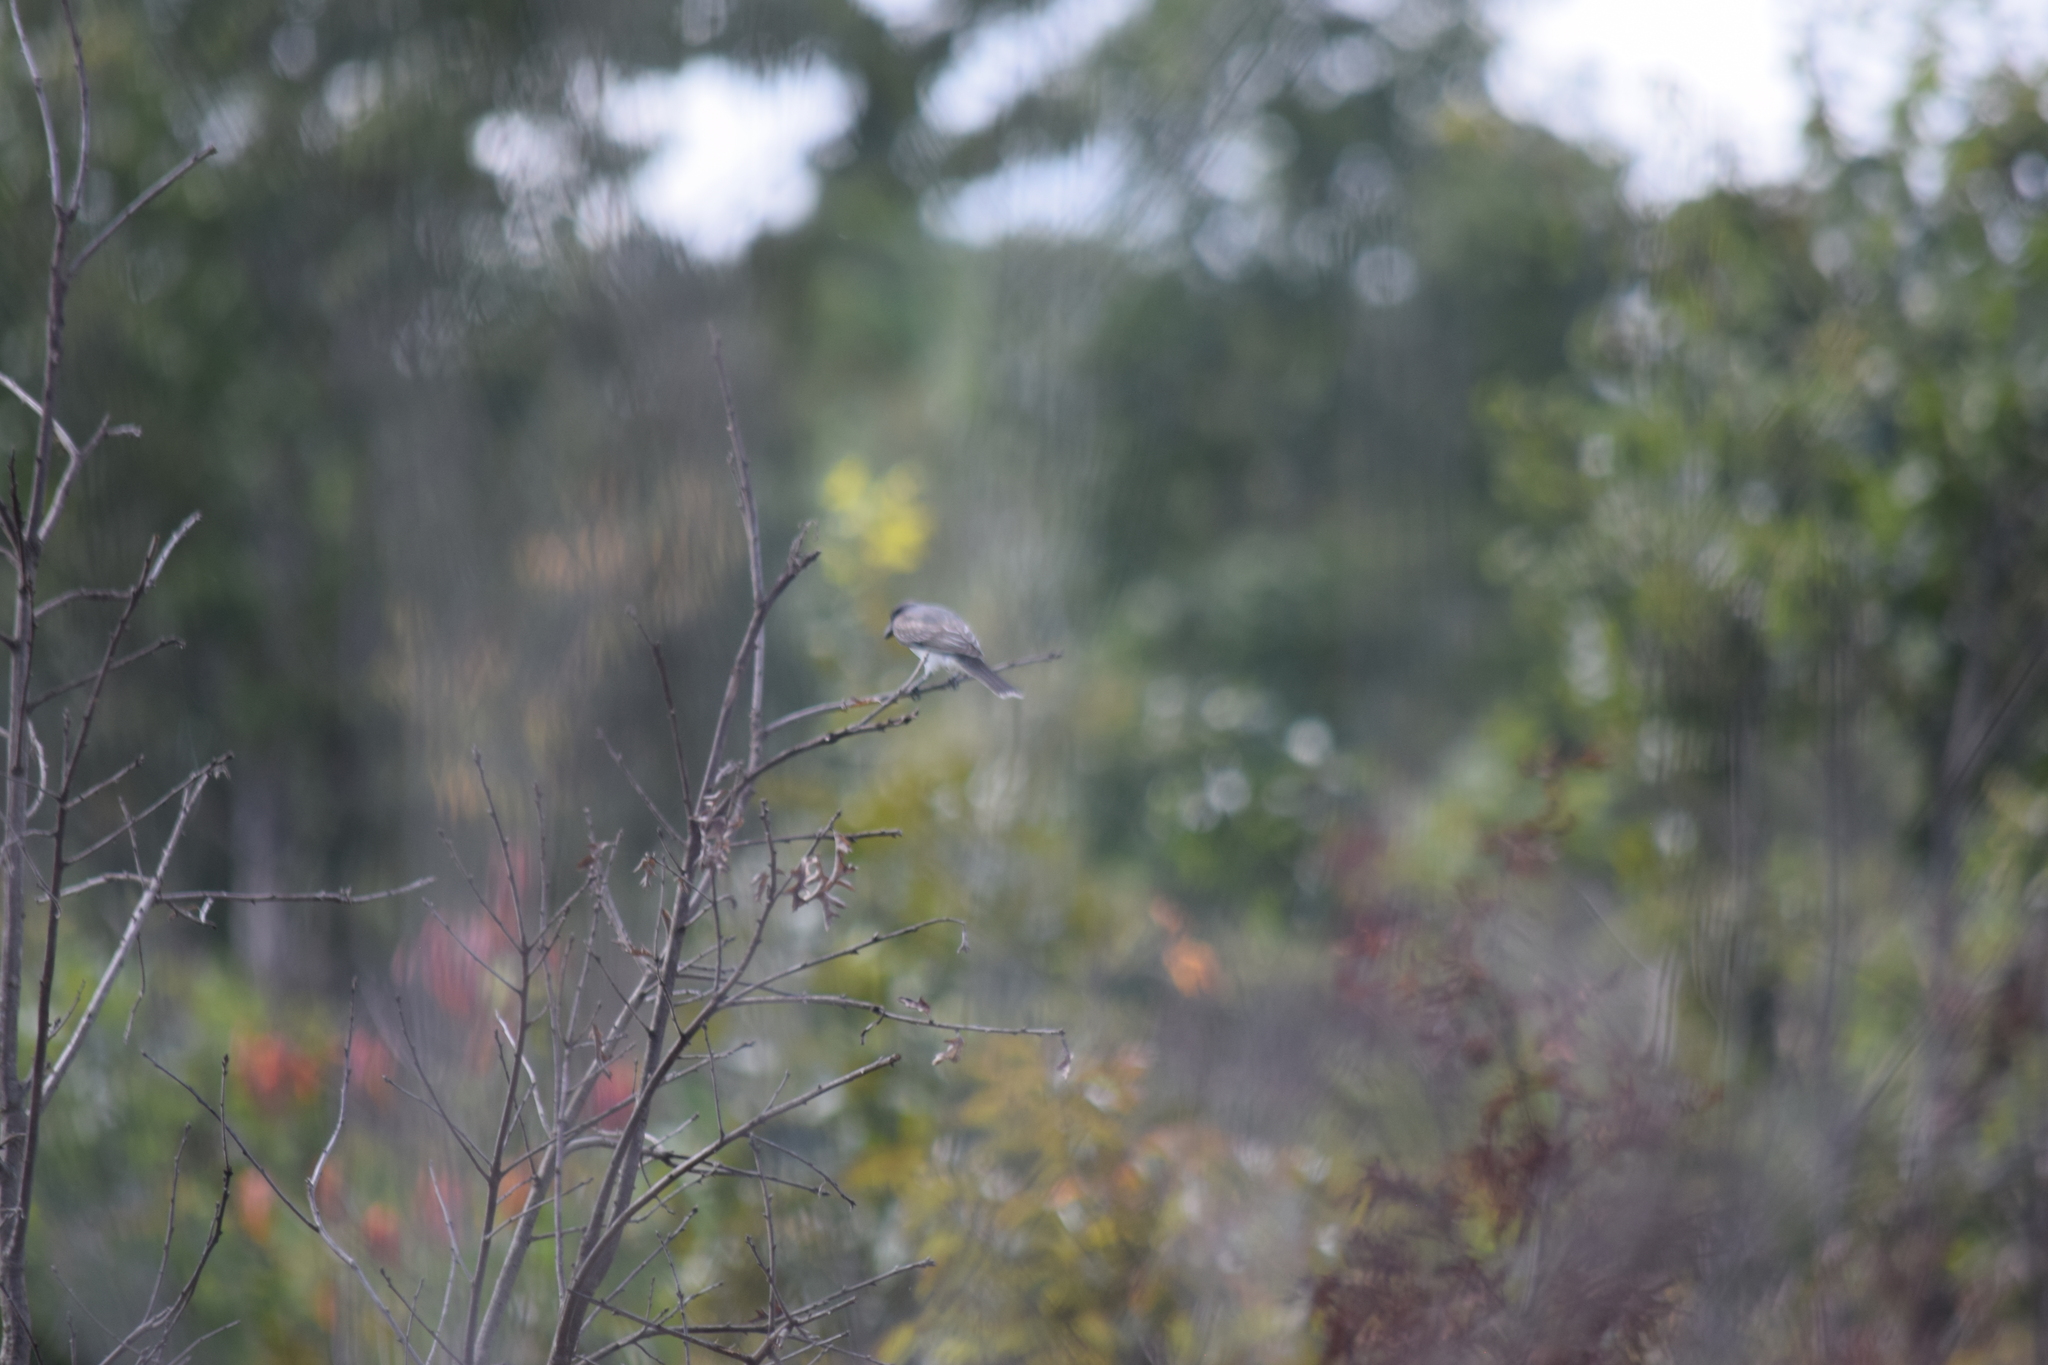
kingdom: Animalia
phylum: Chordata
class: Aves
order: Passeriformes
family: Tyrannidae
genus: Tyrannus
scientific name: Tyrannus tyrannus
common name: Eastern kingbird
